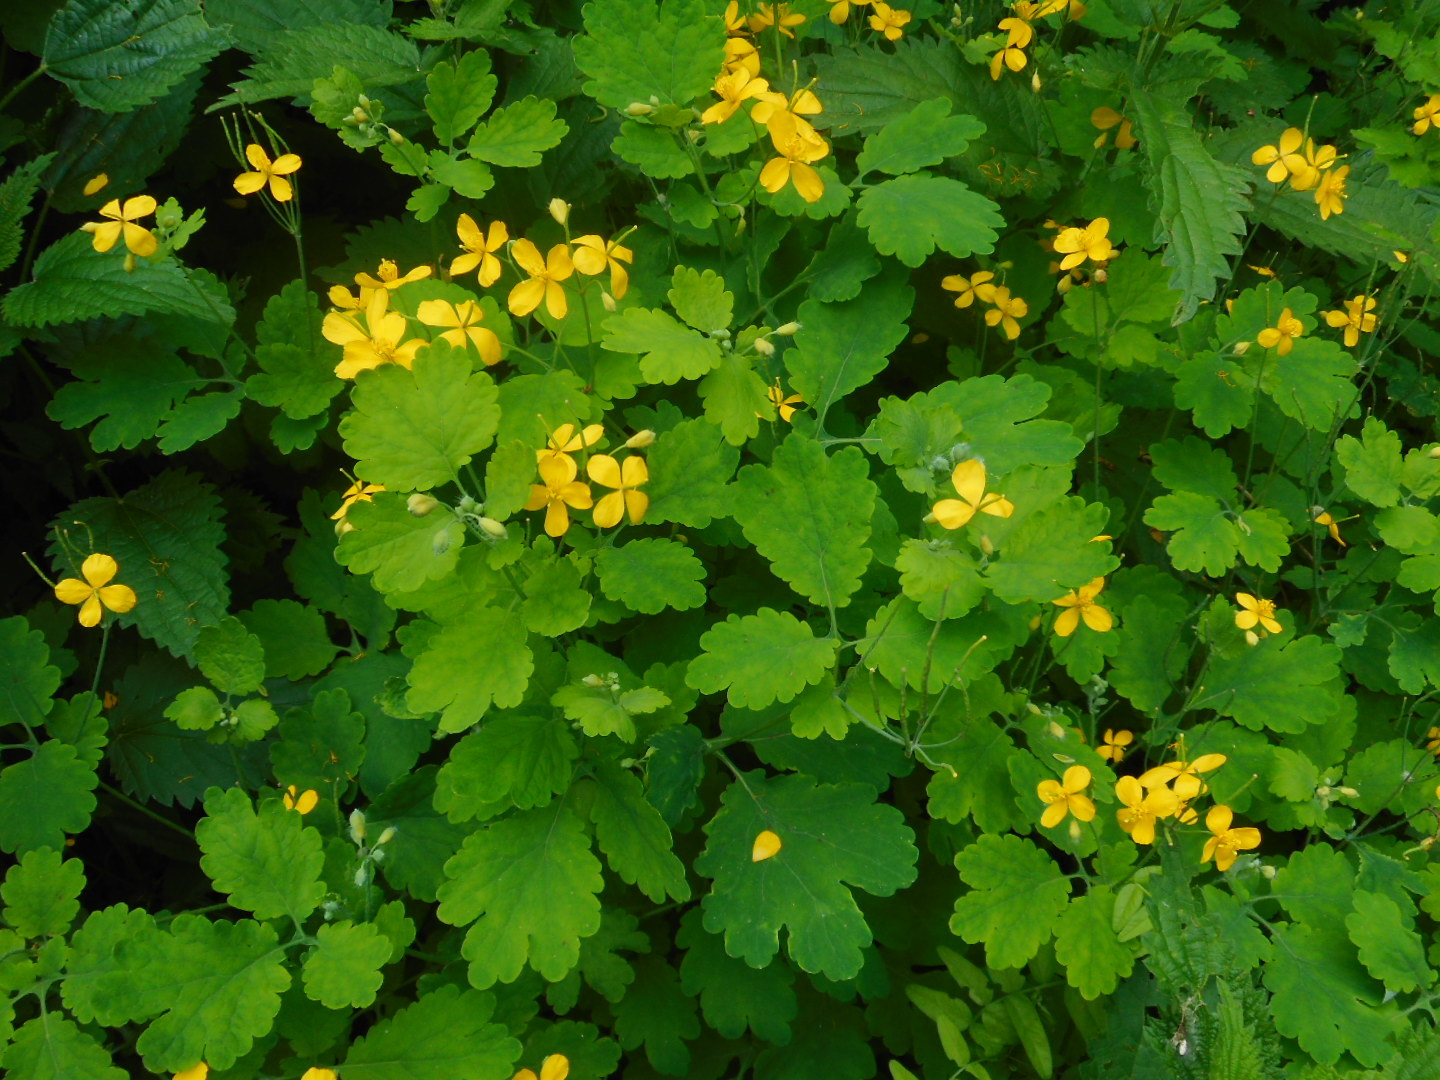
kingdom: Plantae
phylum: Tracheophyta
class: Magnoliopsida
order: Ranunculales
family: Papaveraceae
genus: Chelidonium
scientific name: Chelidonium majus
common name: Greater celandine
